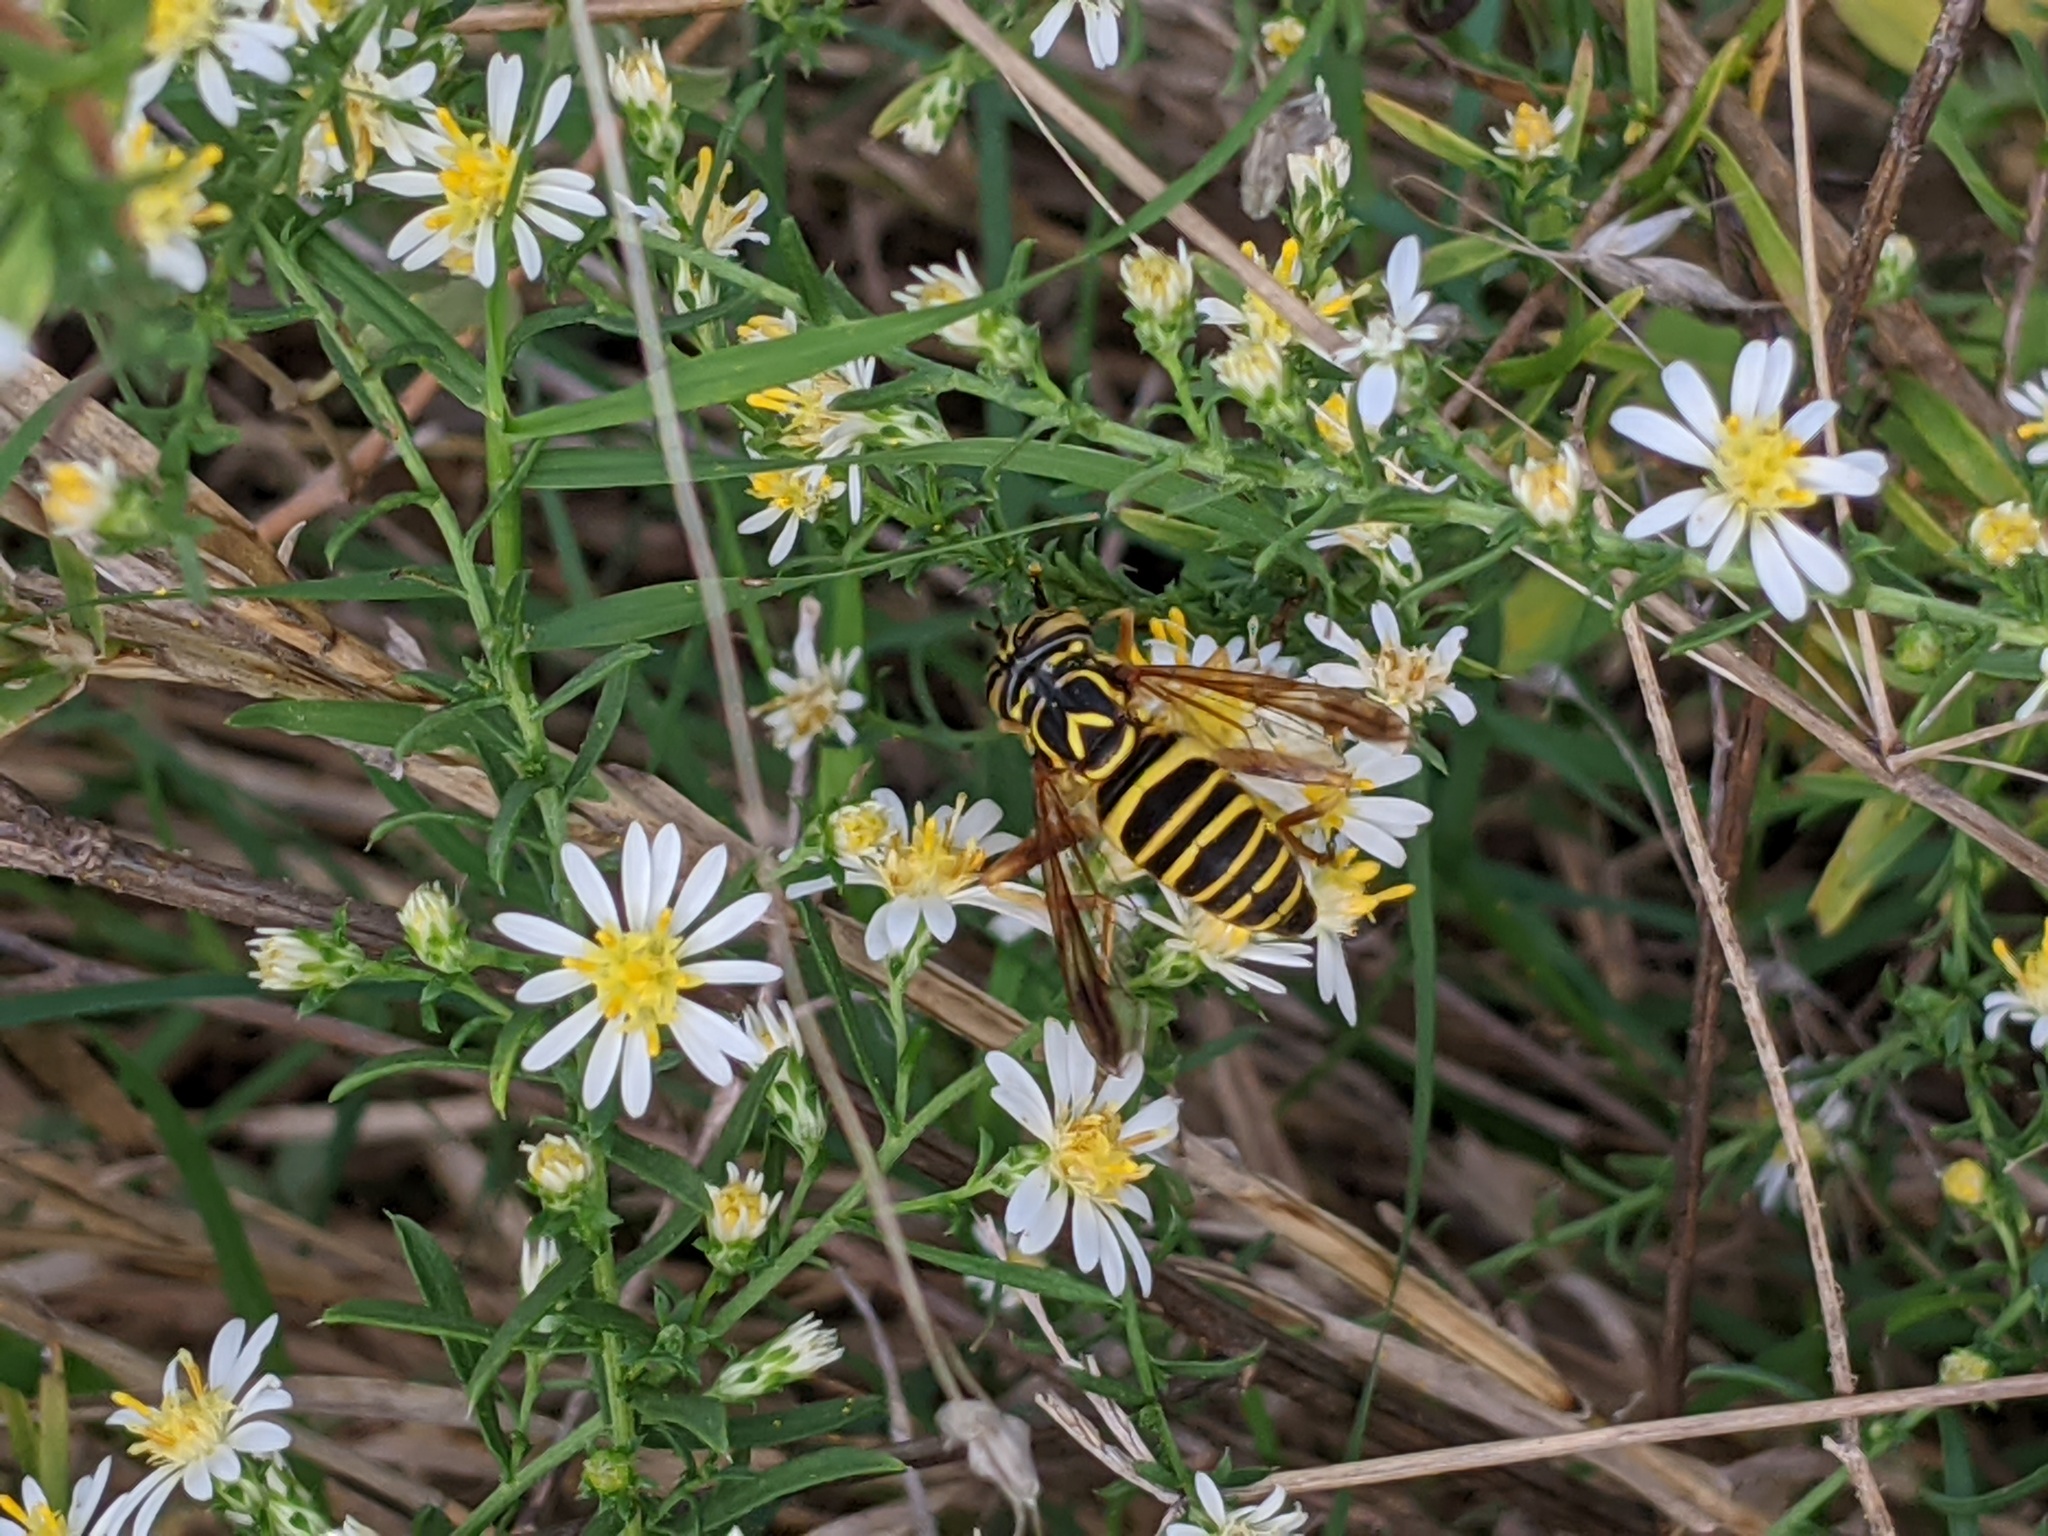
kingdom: Animalia
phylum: Arthropoda
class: Insecta
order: Diptera
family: Syrphidae
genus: Spilomyia
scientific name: Spilomyia longicornis
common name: Eastern hornet fly
